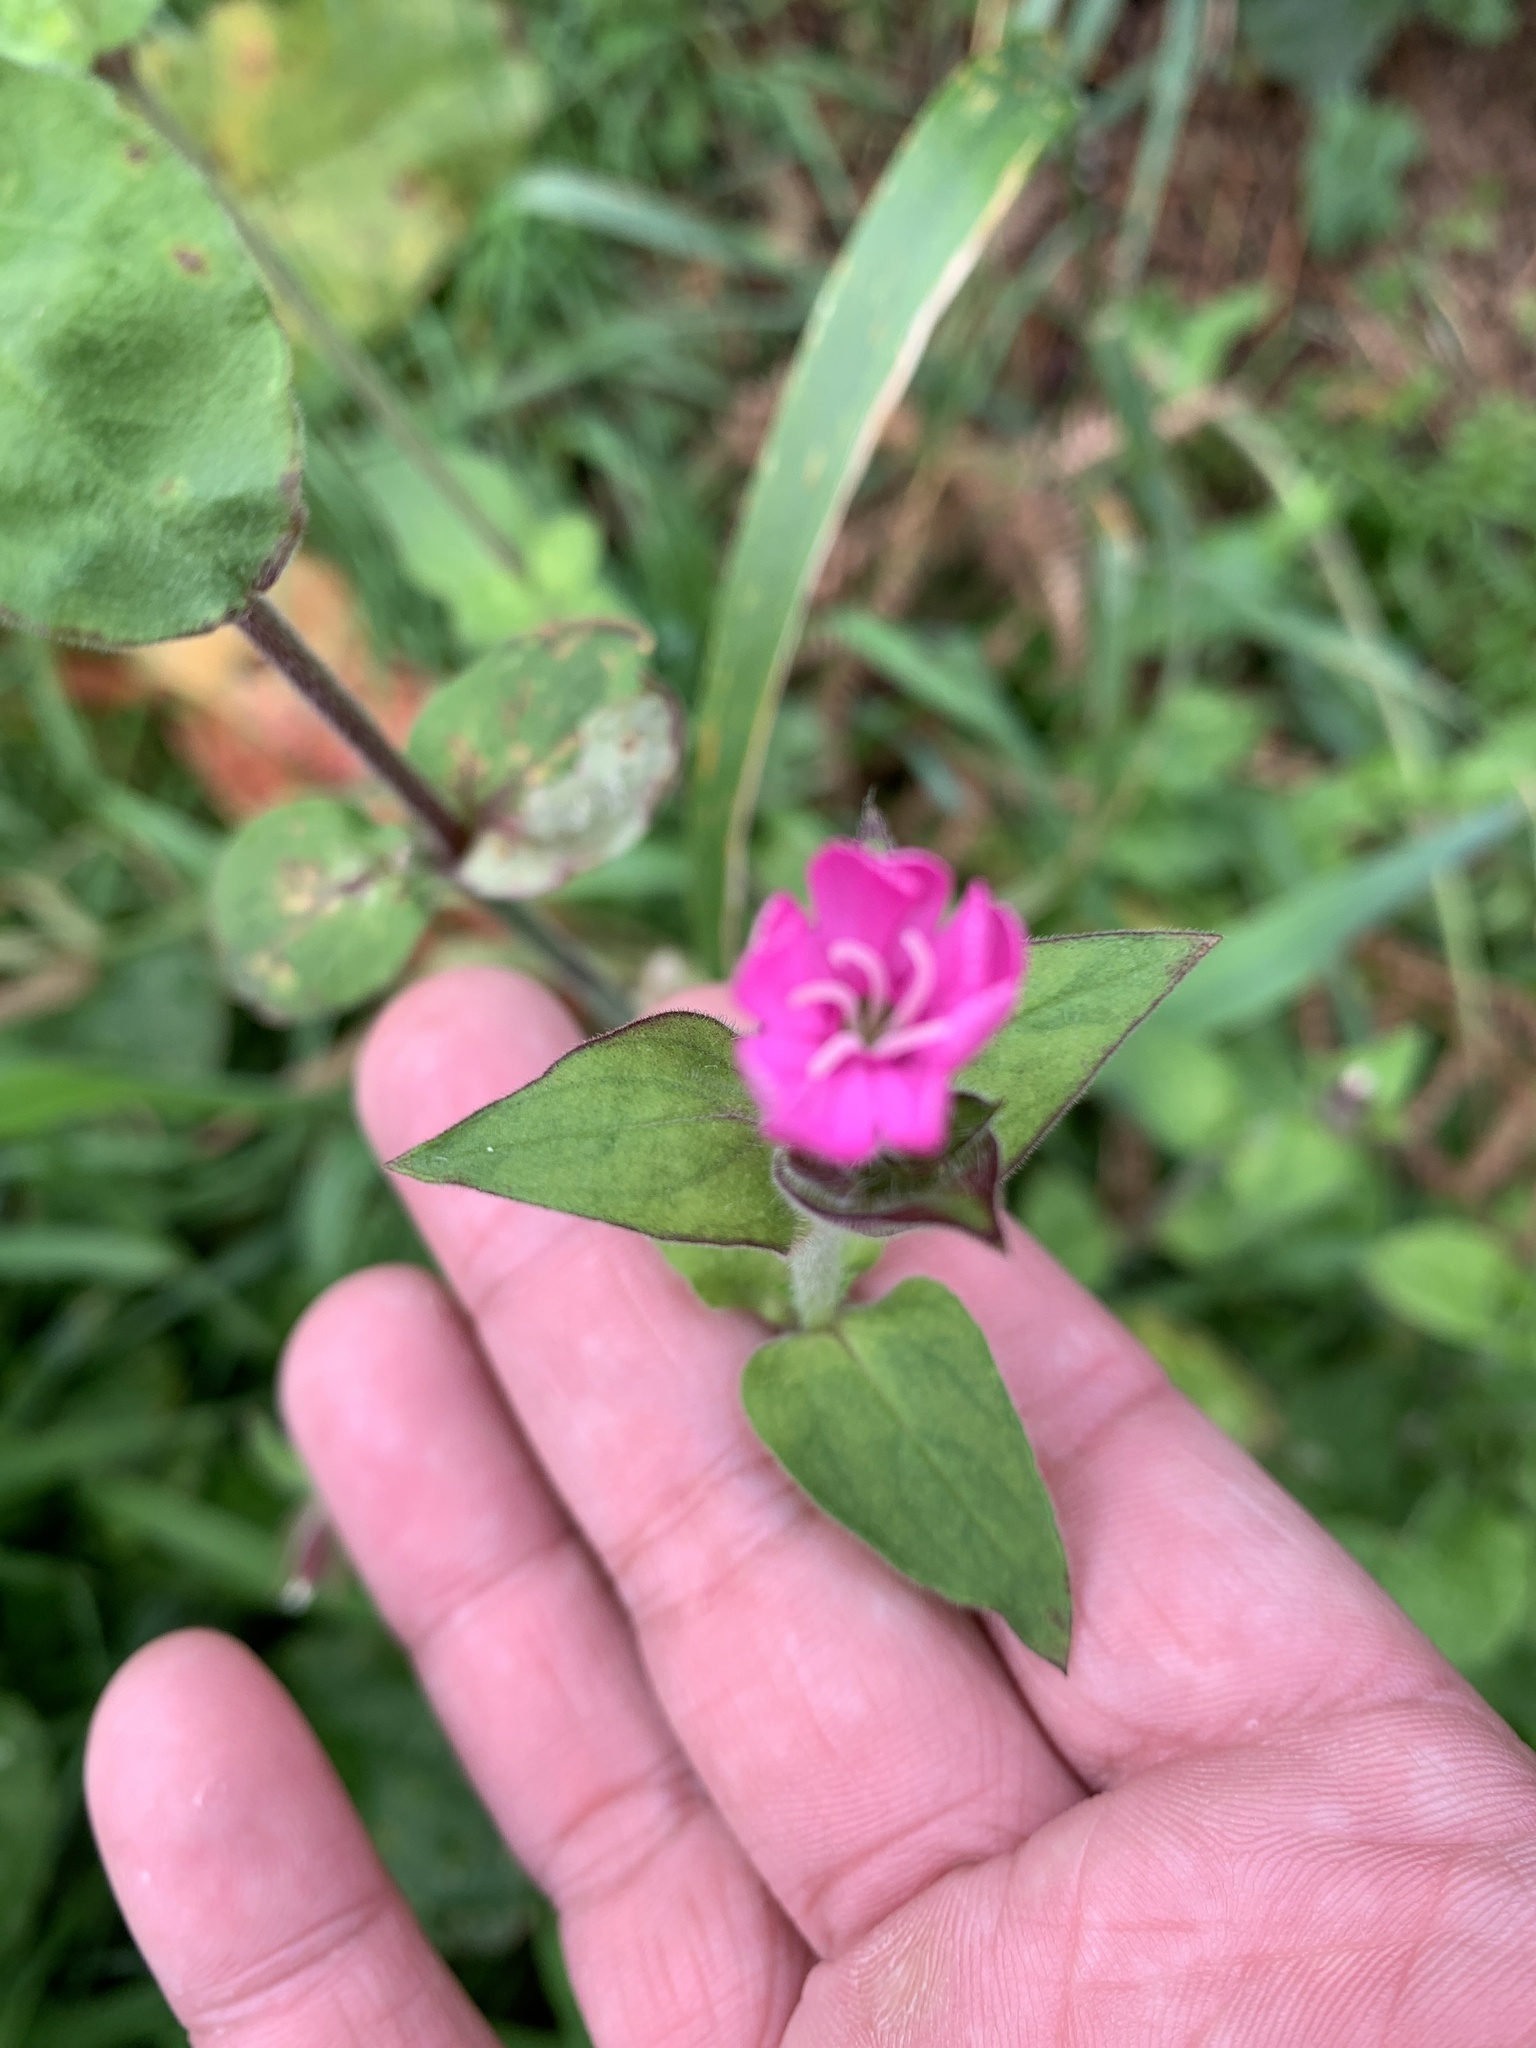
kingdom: Plantae
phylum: Tracheophyta
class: Magnoliopsida
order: Caryophyllales
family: Caryophyllaceae
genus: Silene
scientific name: Silene dioica
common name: Red campion
